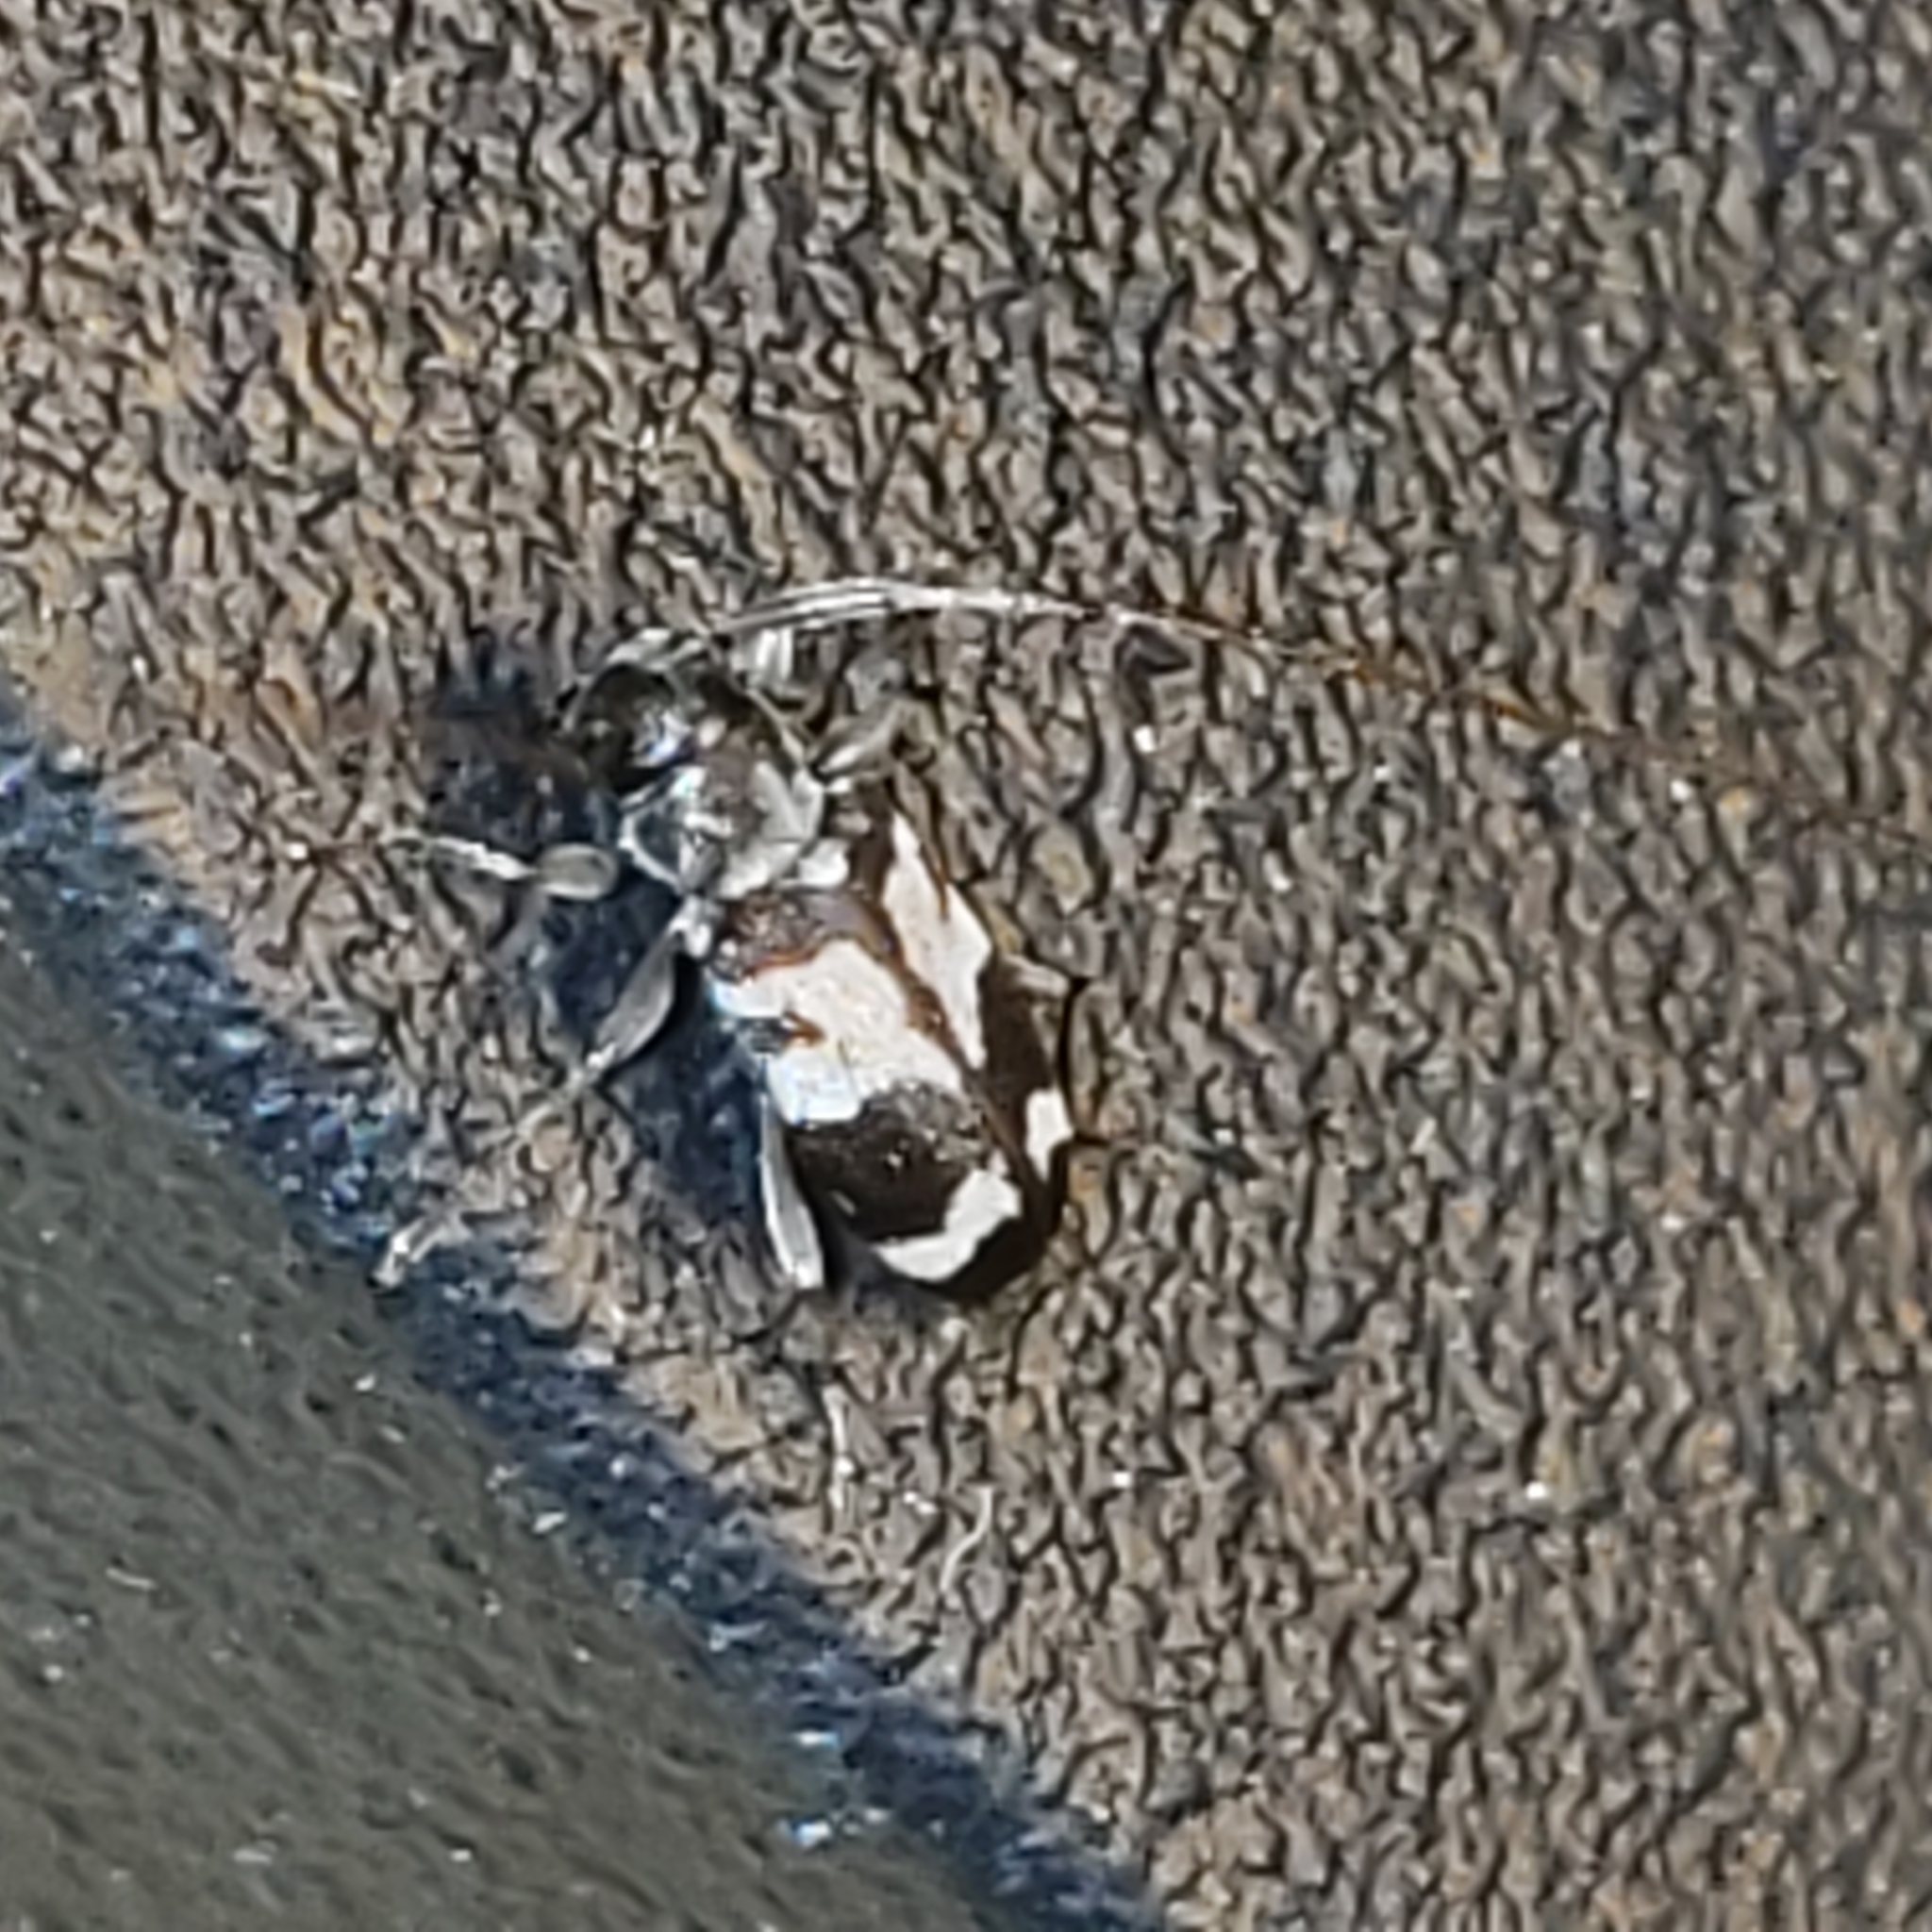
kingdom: Animalia
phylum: Arthropoda
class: Insecta
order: Coleoptera
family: Cerambycidae
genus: Urgleptes
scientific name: Urgleptes facetus
